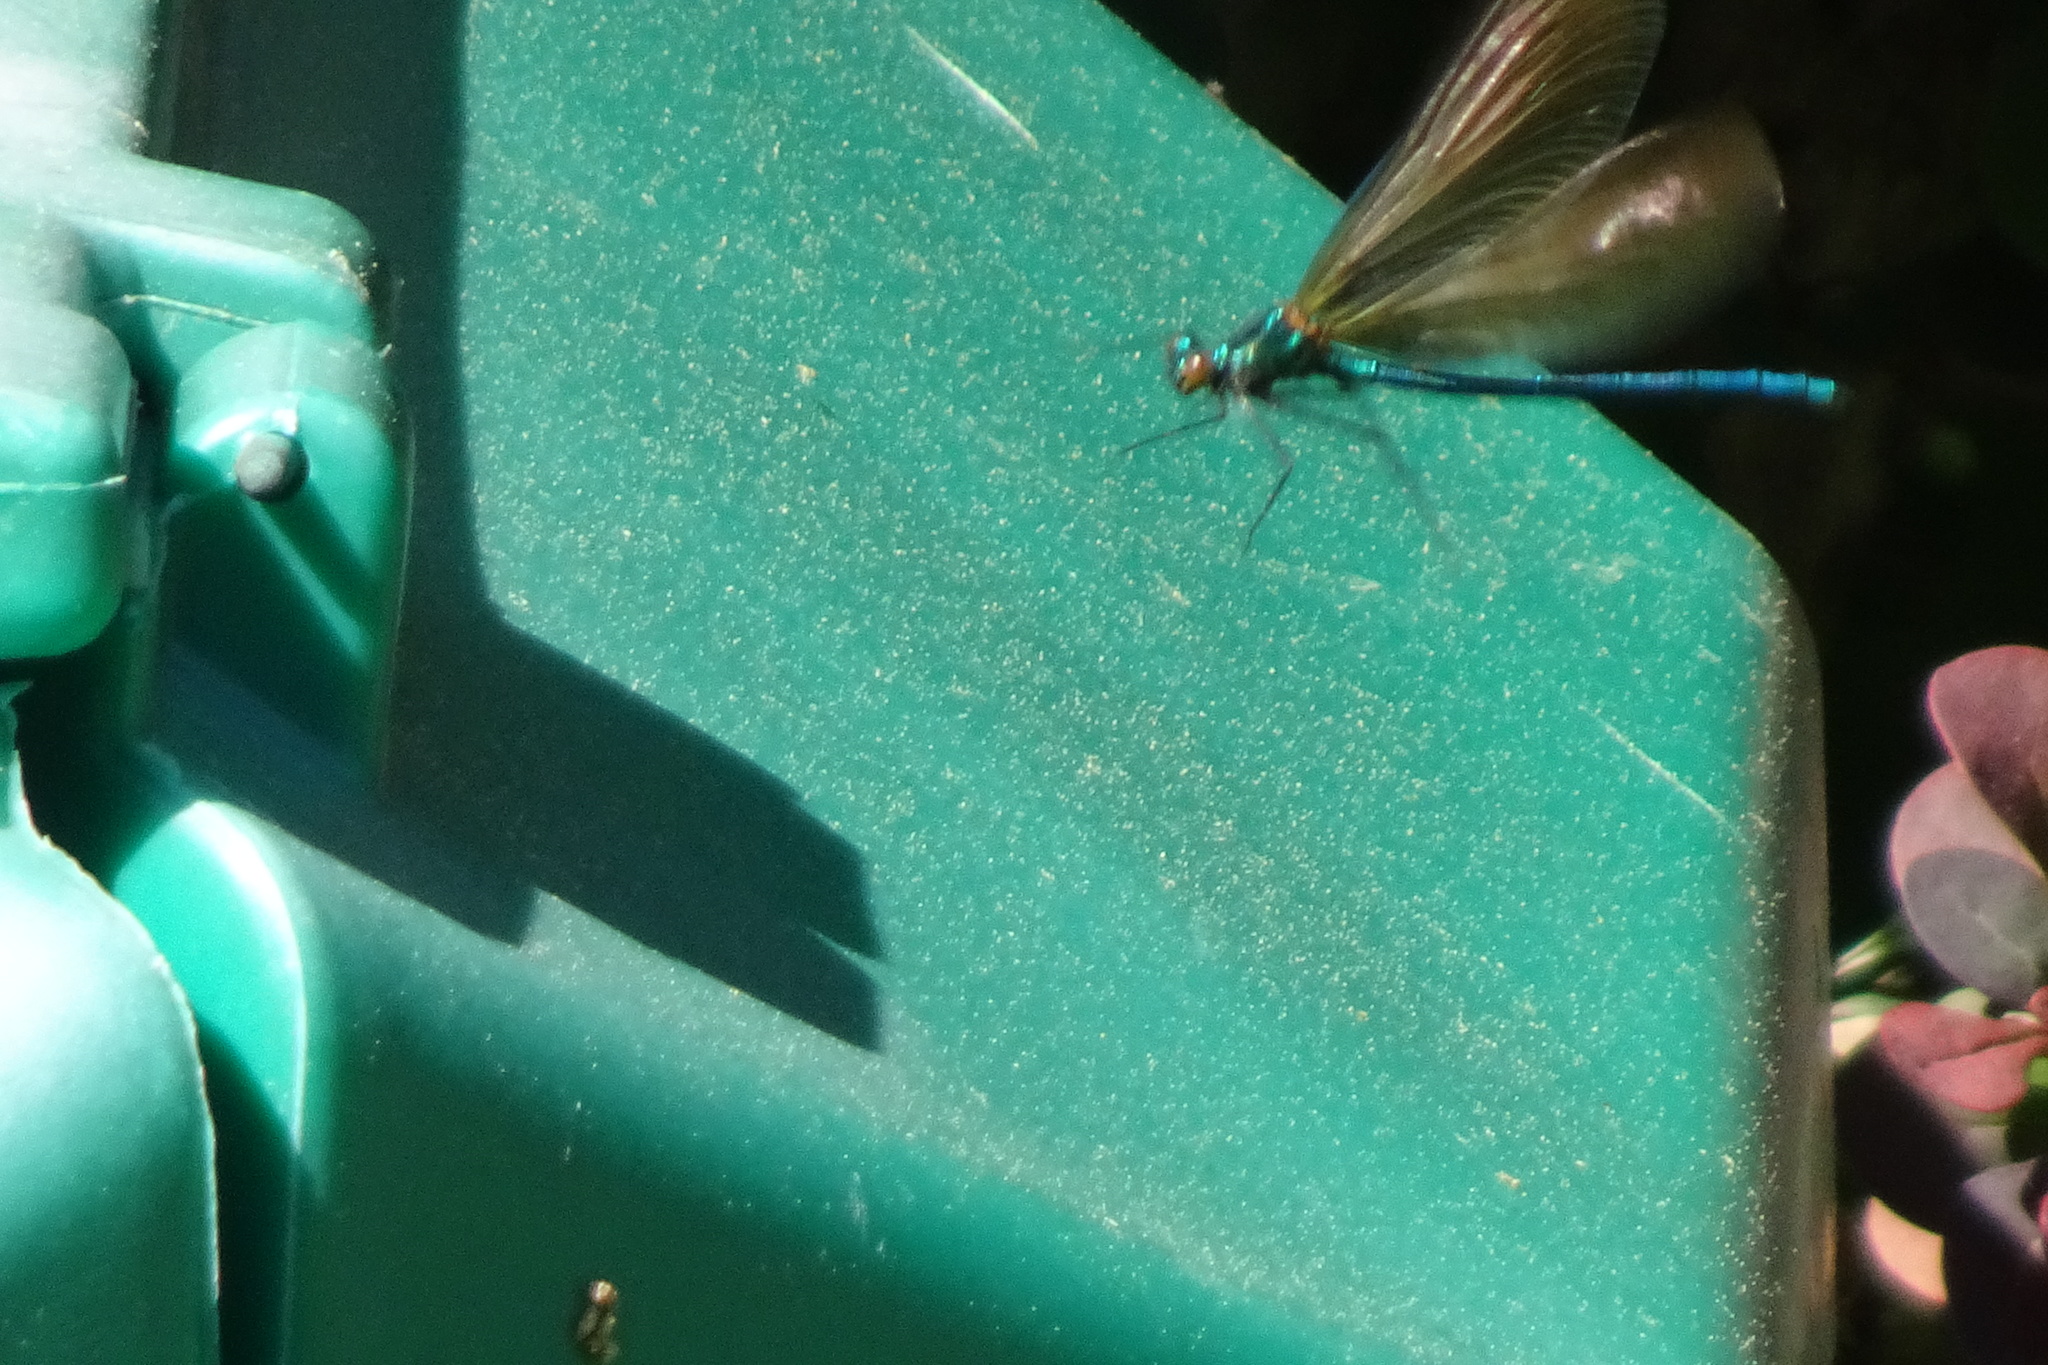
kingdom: Animalia
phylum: Arthropoda
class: Insecta
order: Odonata
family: Calopterygidae
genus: Calopteryx
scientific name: Calopteryx virgo
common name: Beautiful demoiselle
